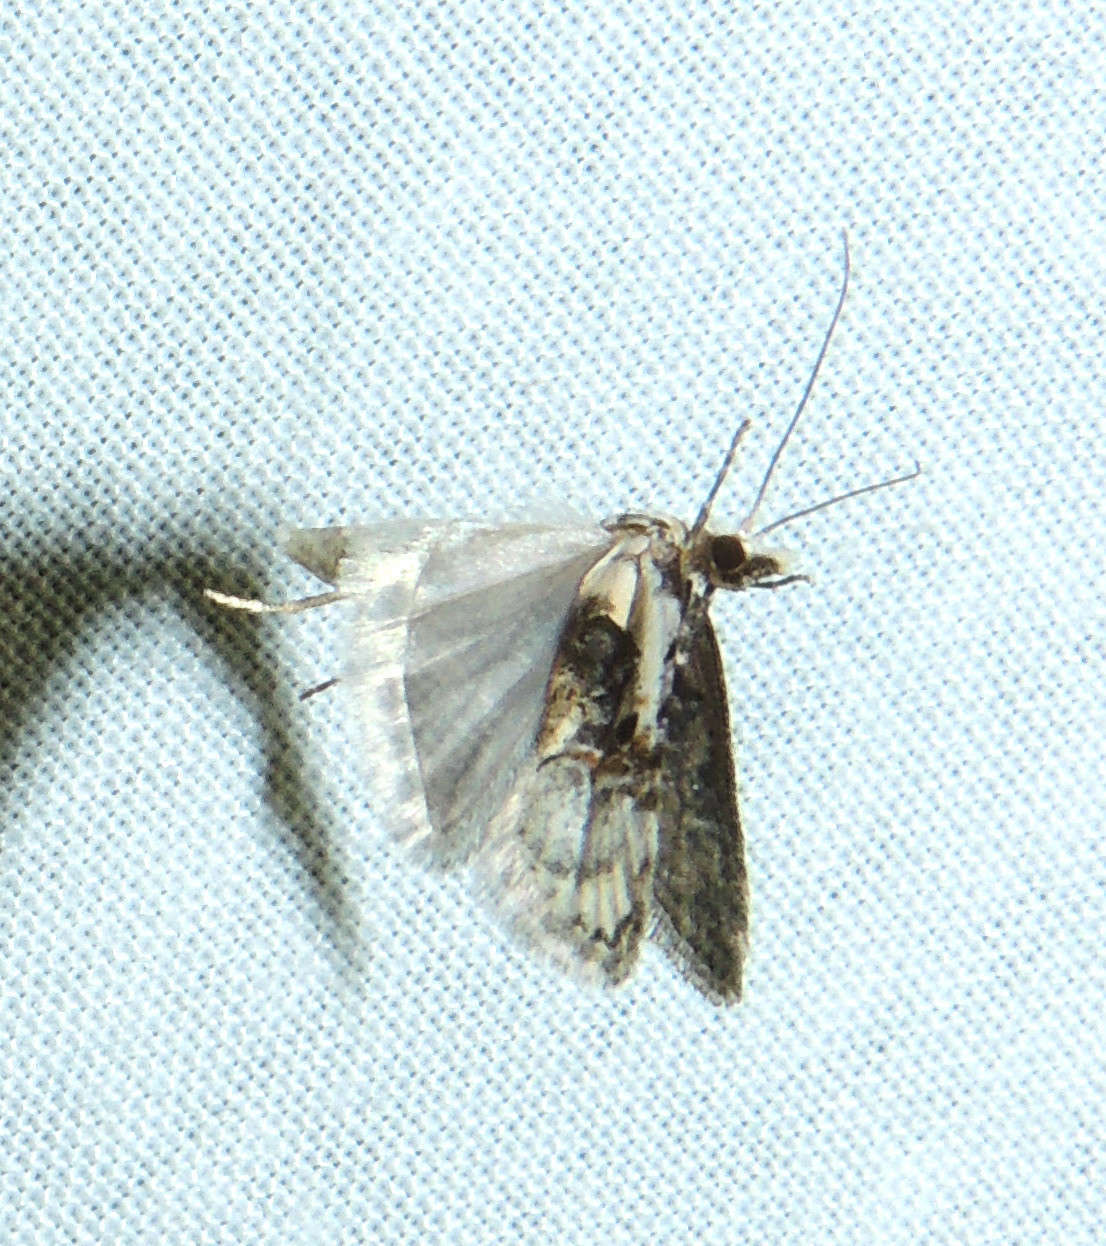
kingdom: Animalia
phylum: Arthropoda
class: Insecta
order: Lepidoptera
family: Carposinidae
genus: Sosineura
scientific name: Sosineura mimica
